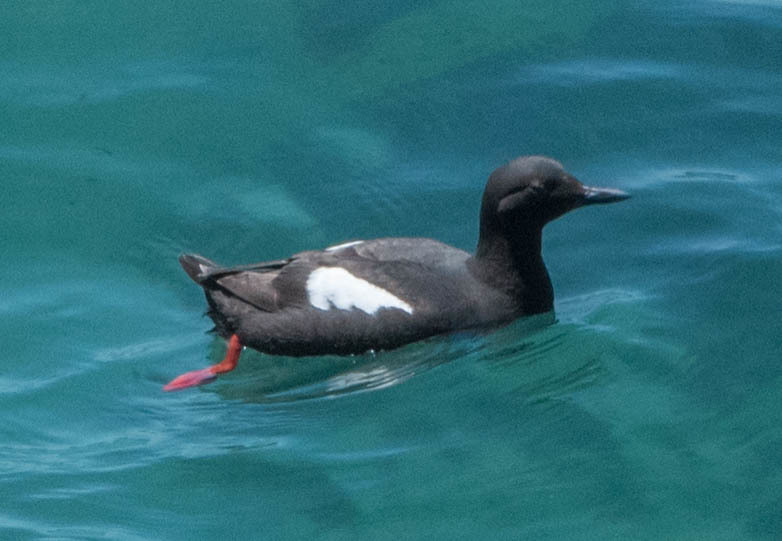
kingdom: Animalia
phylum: Chordata
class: Aves
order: Charadriiformes
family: Alcidae
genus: Cepphus
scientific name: Cepphus columba
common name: Pigeon guillemot
